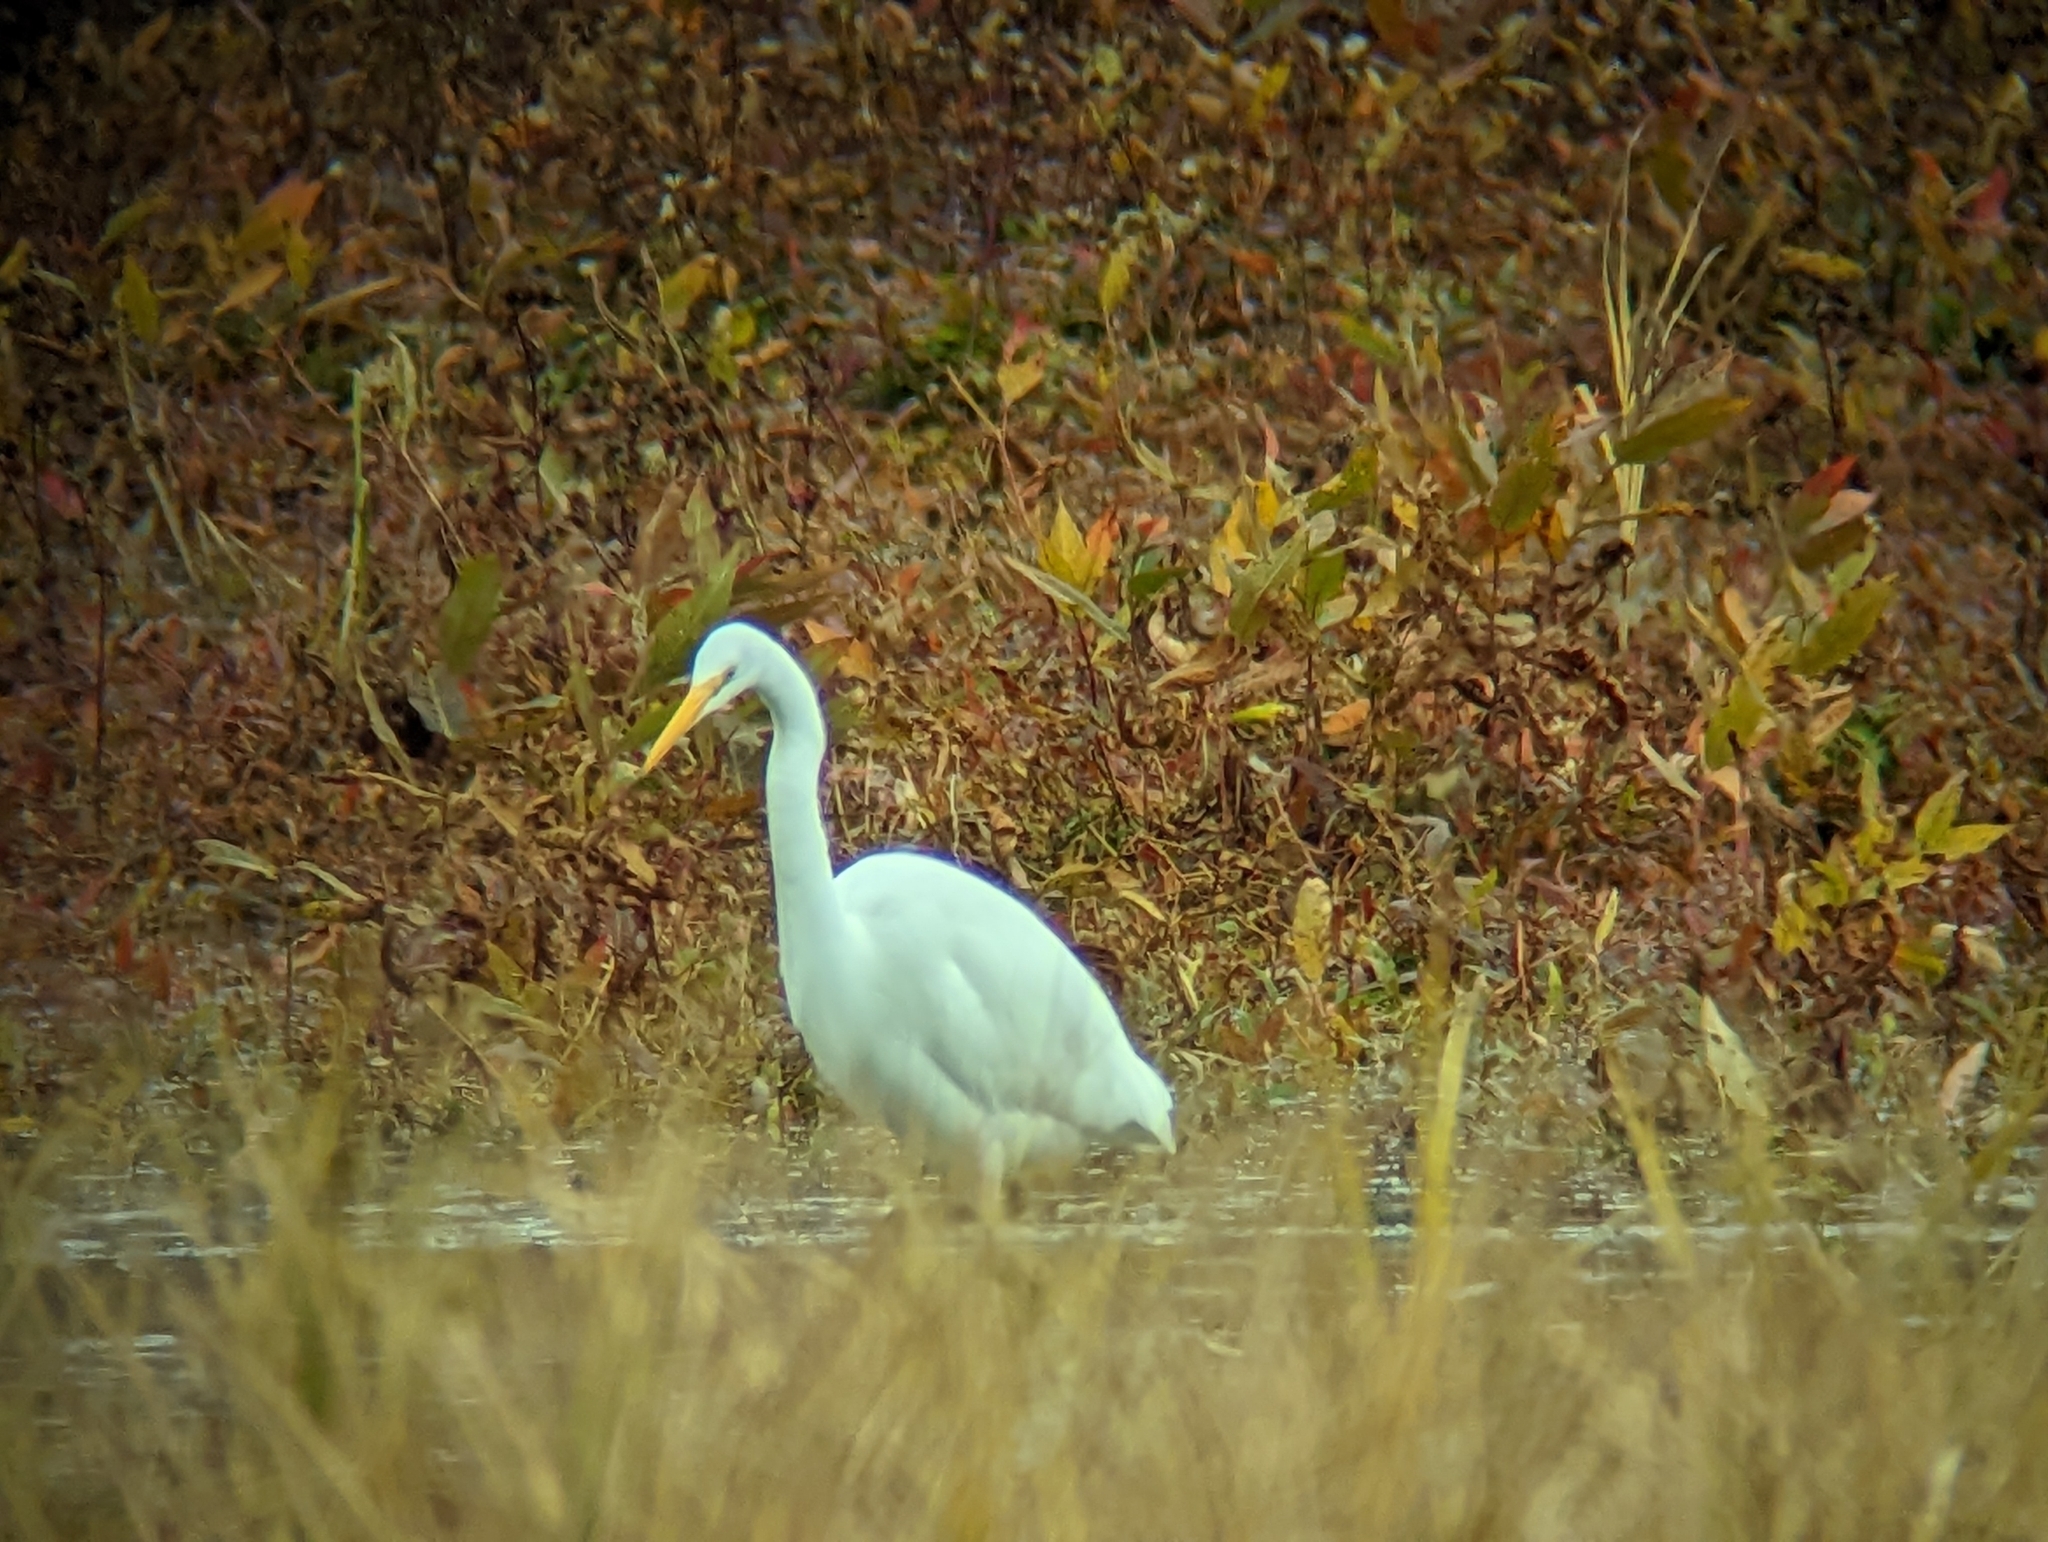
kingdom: Animalia
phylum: Chordata
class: Aves
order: Pelecaniformes
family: Ardeidae
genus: Ardea
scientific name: Ardea alba
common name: Great egret
